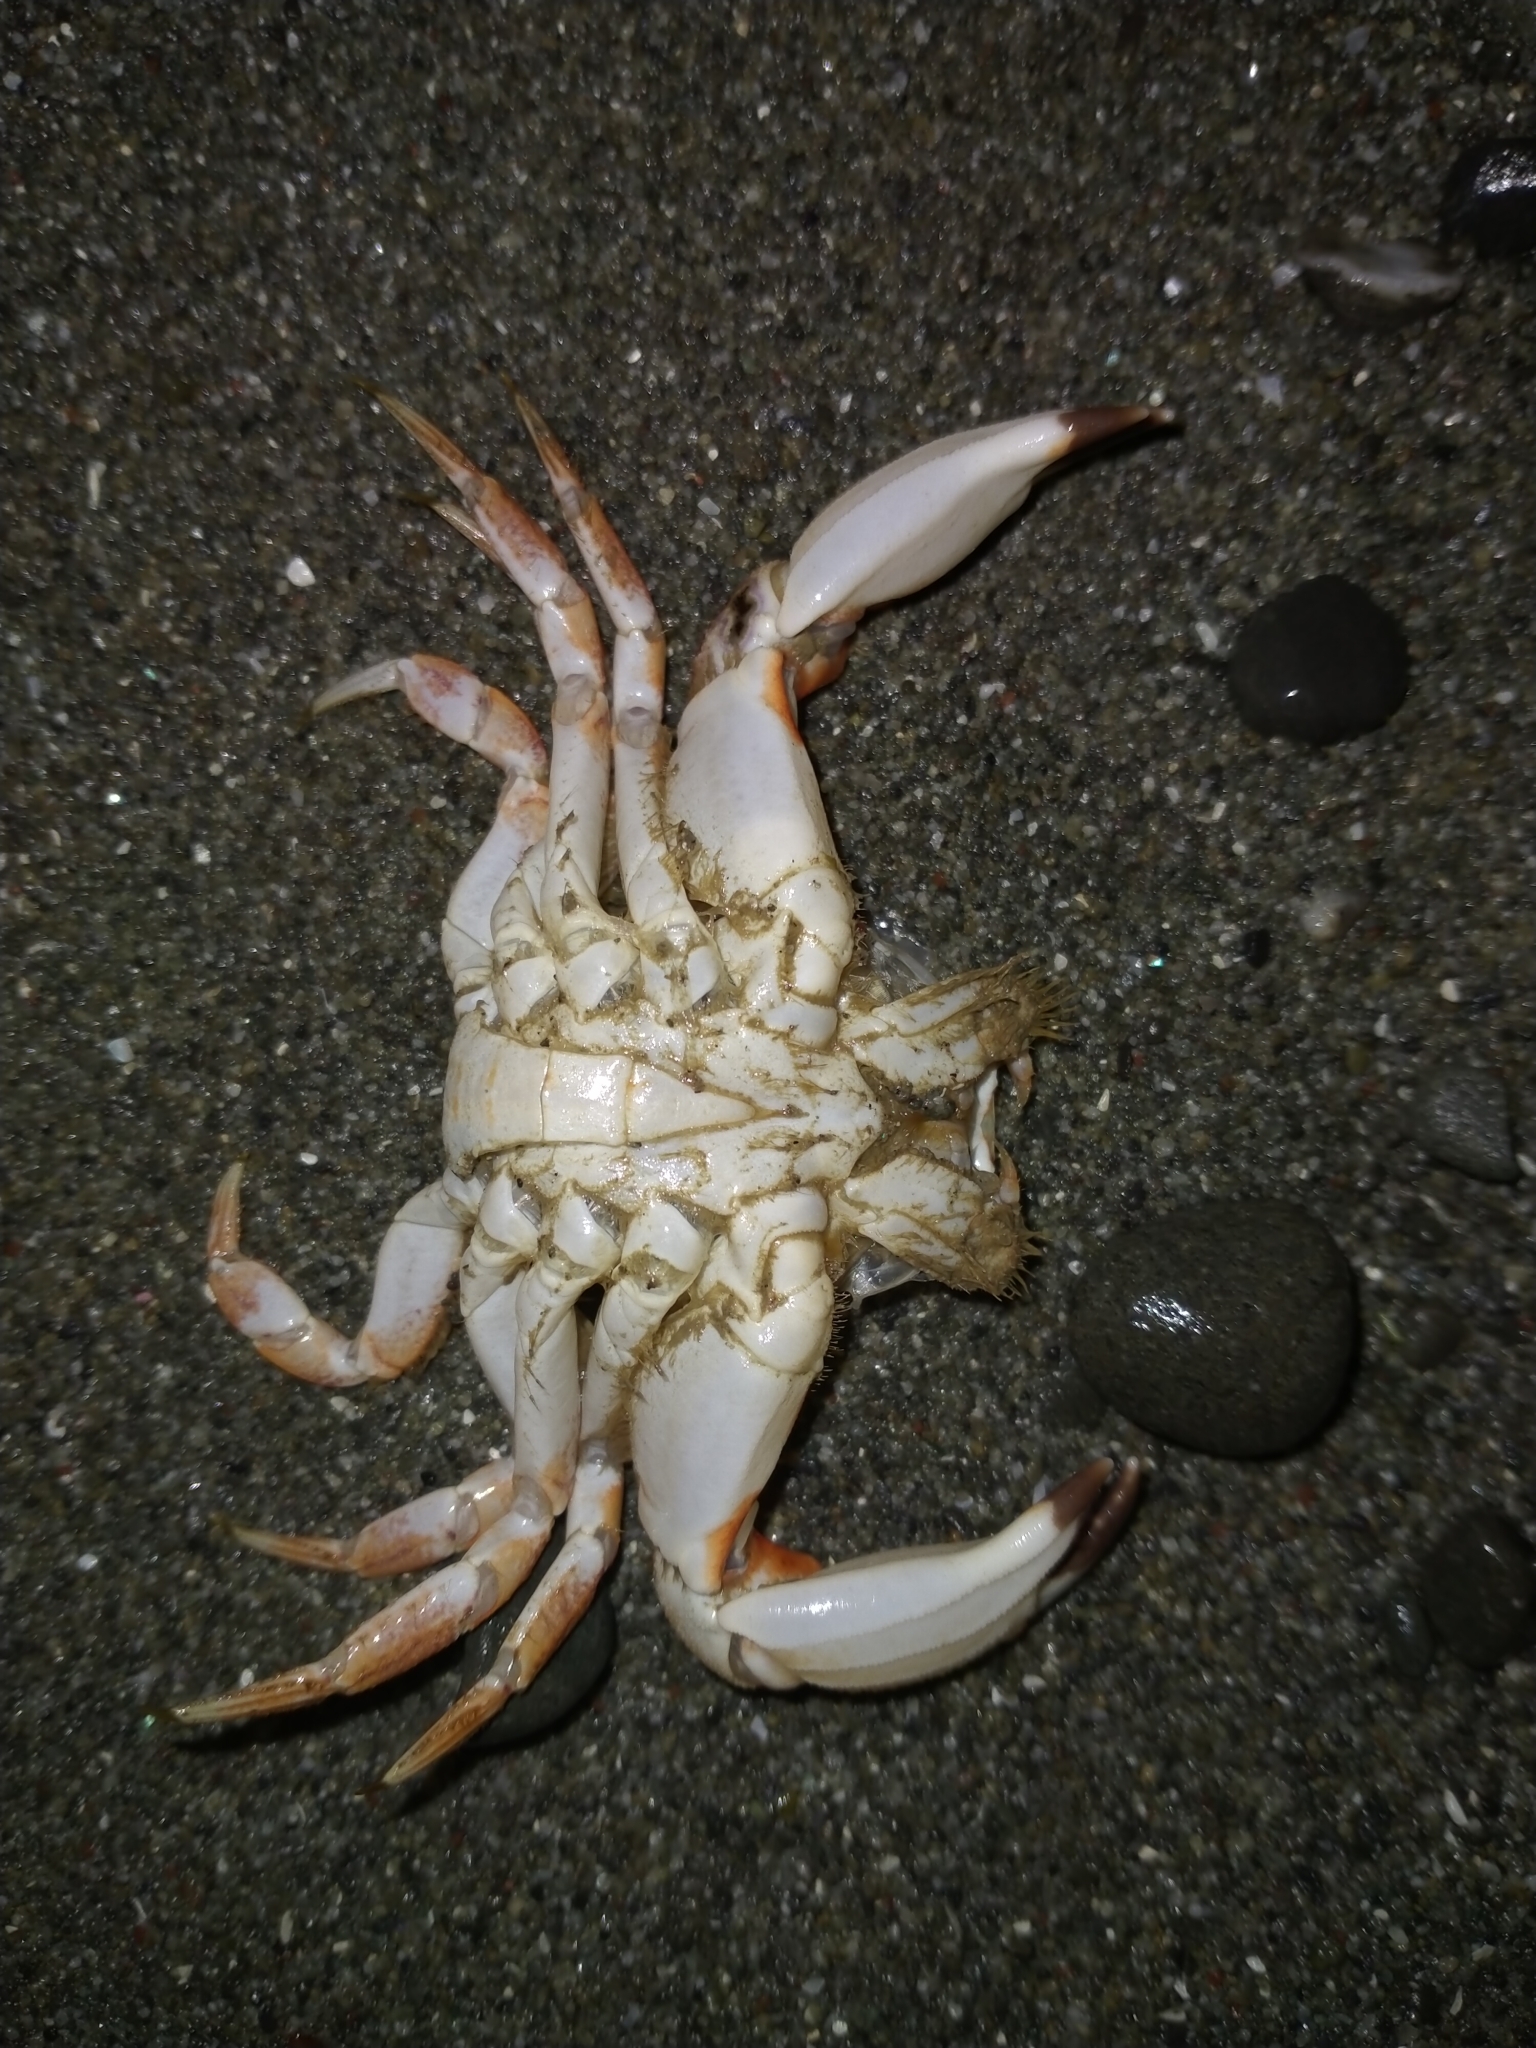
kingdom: Animalia
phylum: Arthropoda
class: Malacostraca
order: Decapoda
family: Cancridae
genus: Metacarcinus
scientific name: Metacarcinus novaezelandiae
